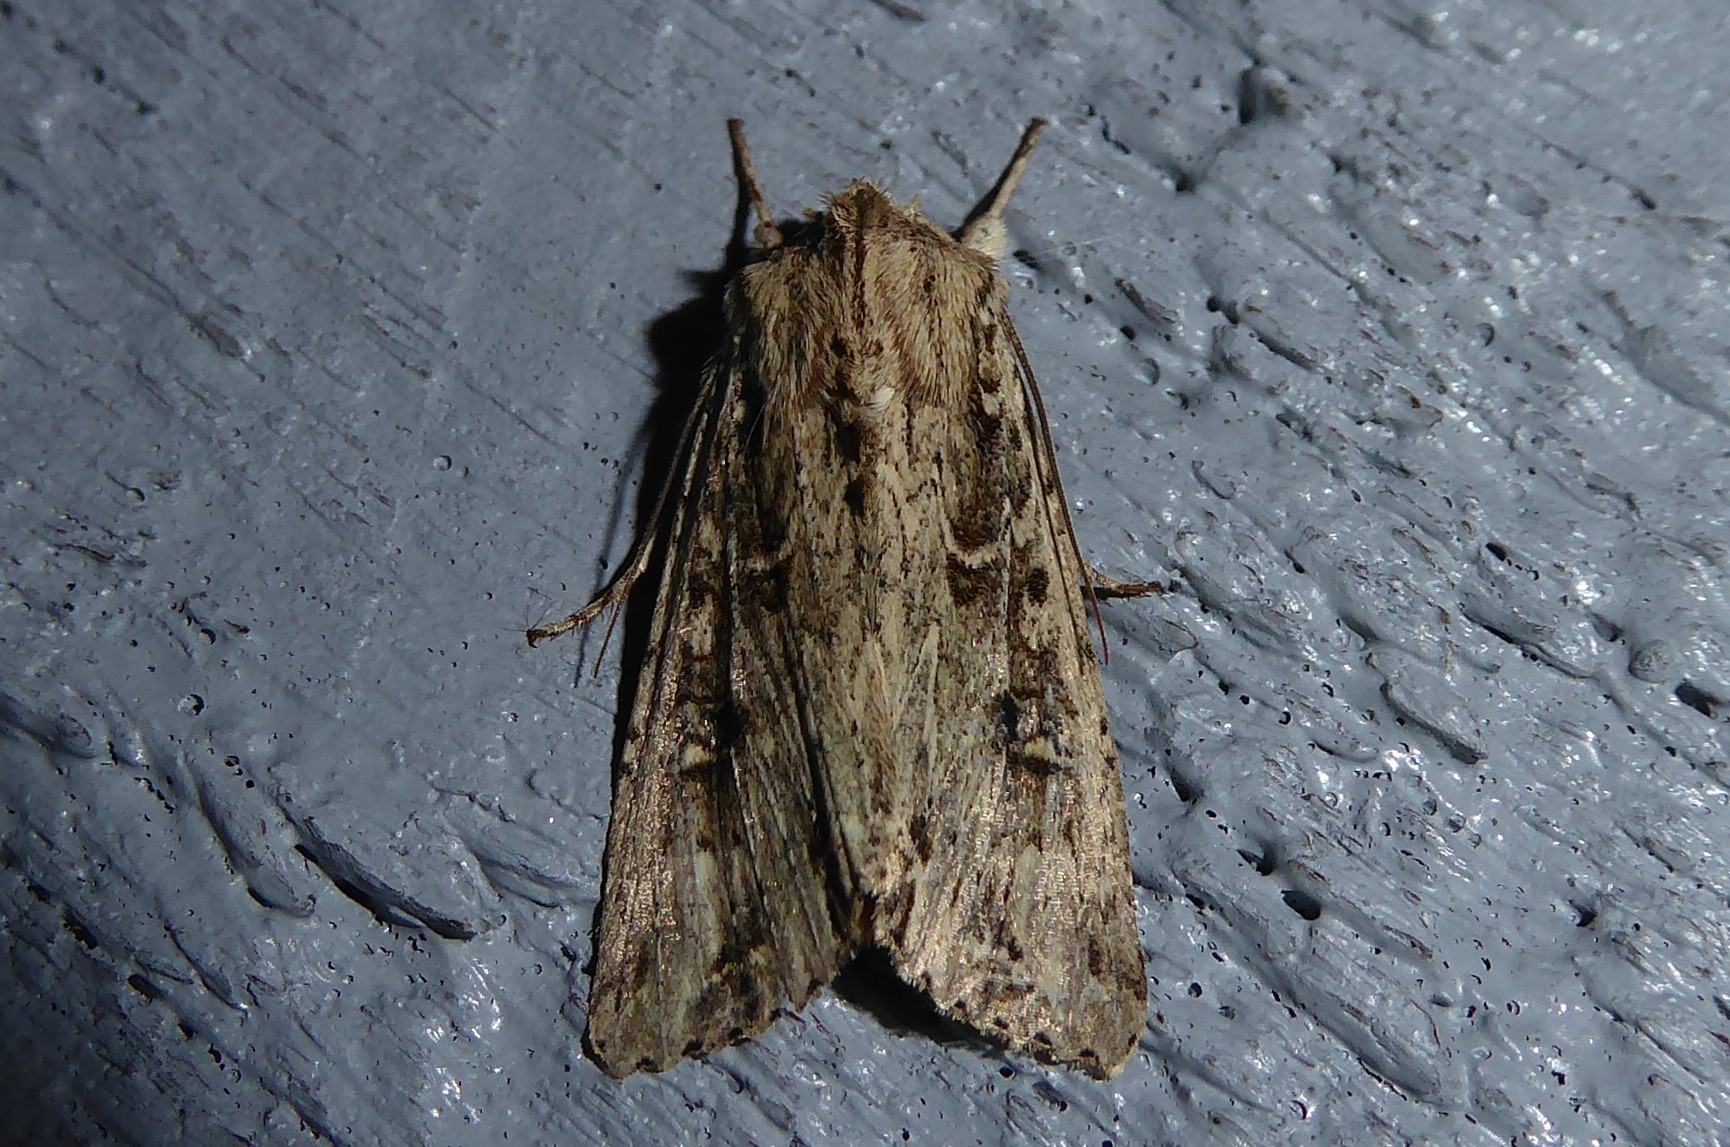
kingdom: Animalia
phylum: Arthropoda
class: Insecta
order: Lepidoptera
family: Noctuidae
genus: Ichneutica
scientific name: Ichneutica lignana
